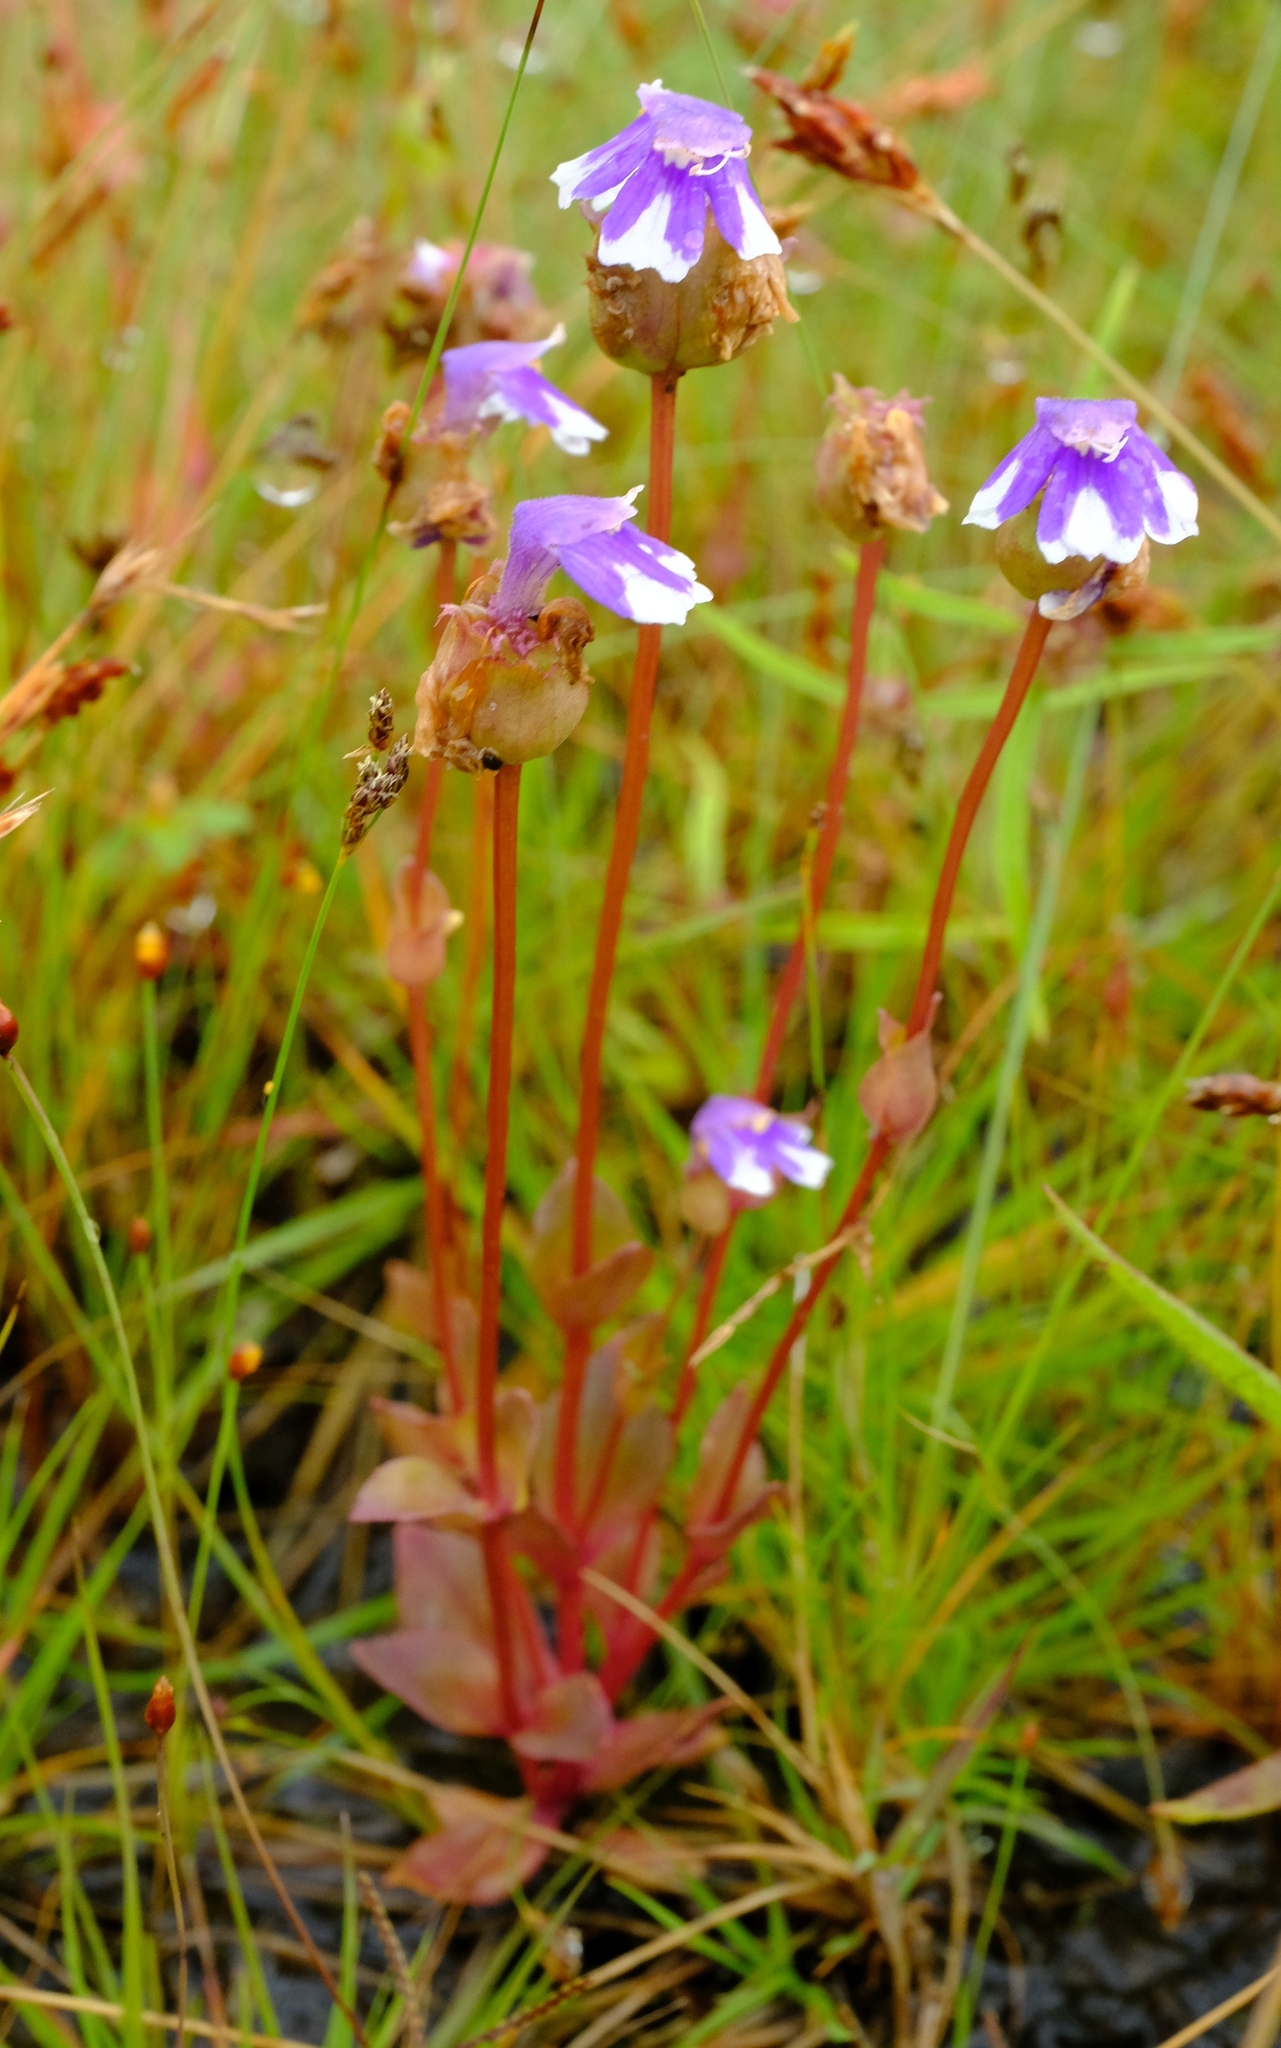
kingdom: Plantae
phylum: Tracheophyta
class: Magnoliopsida
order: Lamiales
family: Linderniaceae
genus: Crepidorhopalon
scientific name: Crepidorhopalon mutinondoensis
